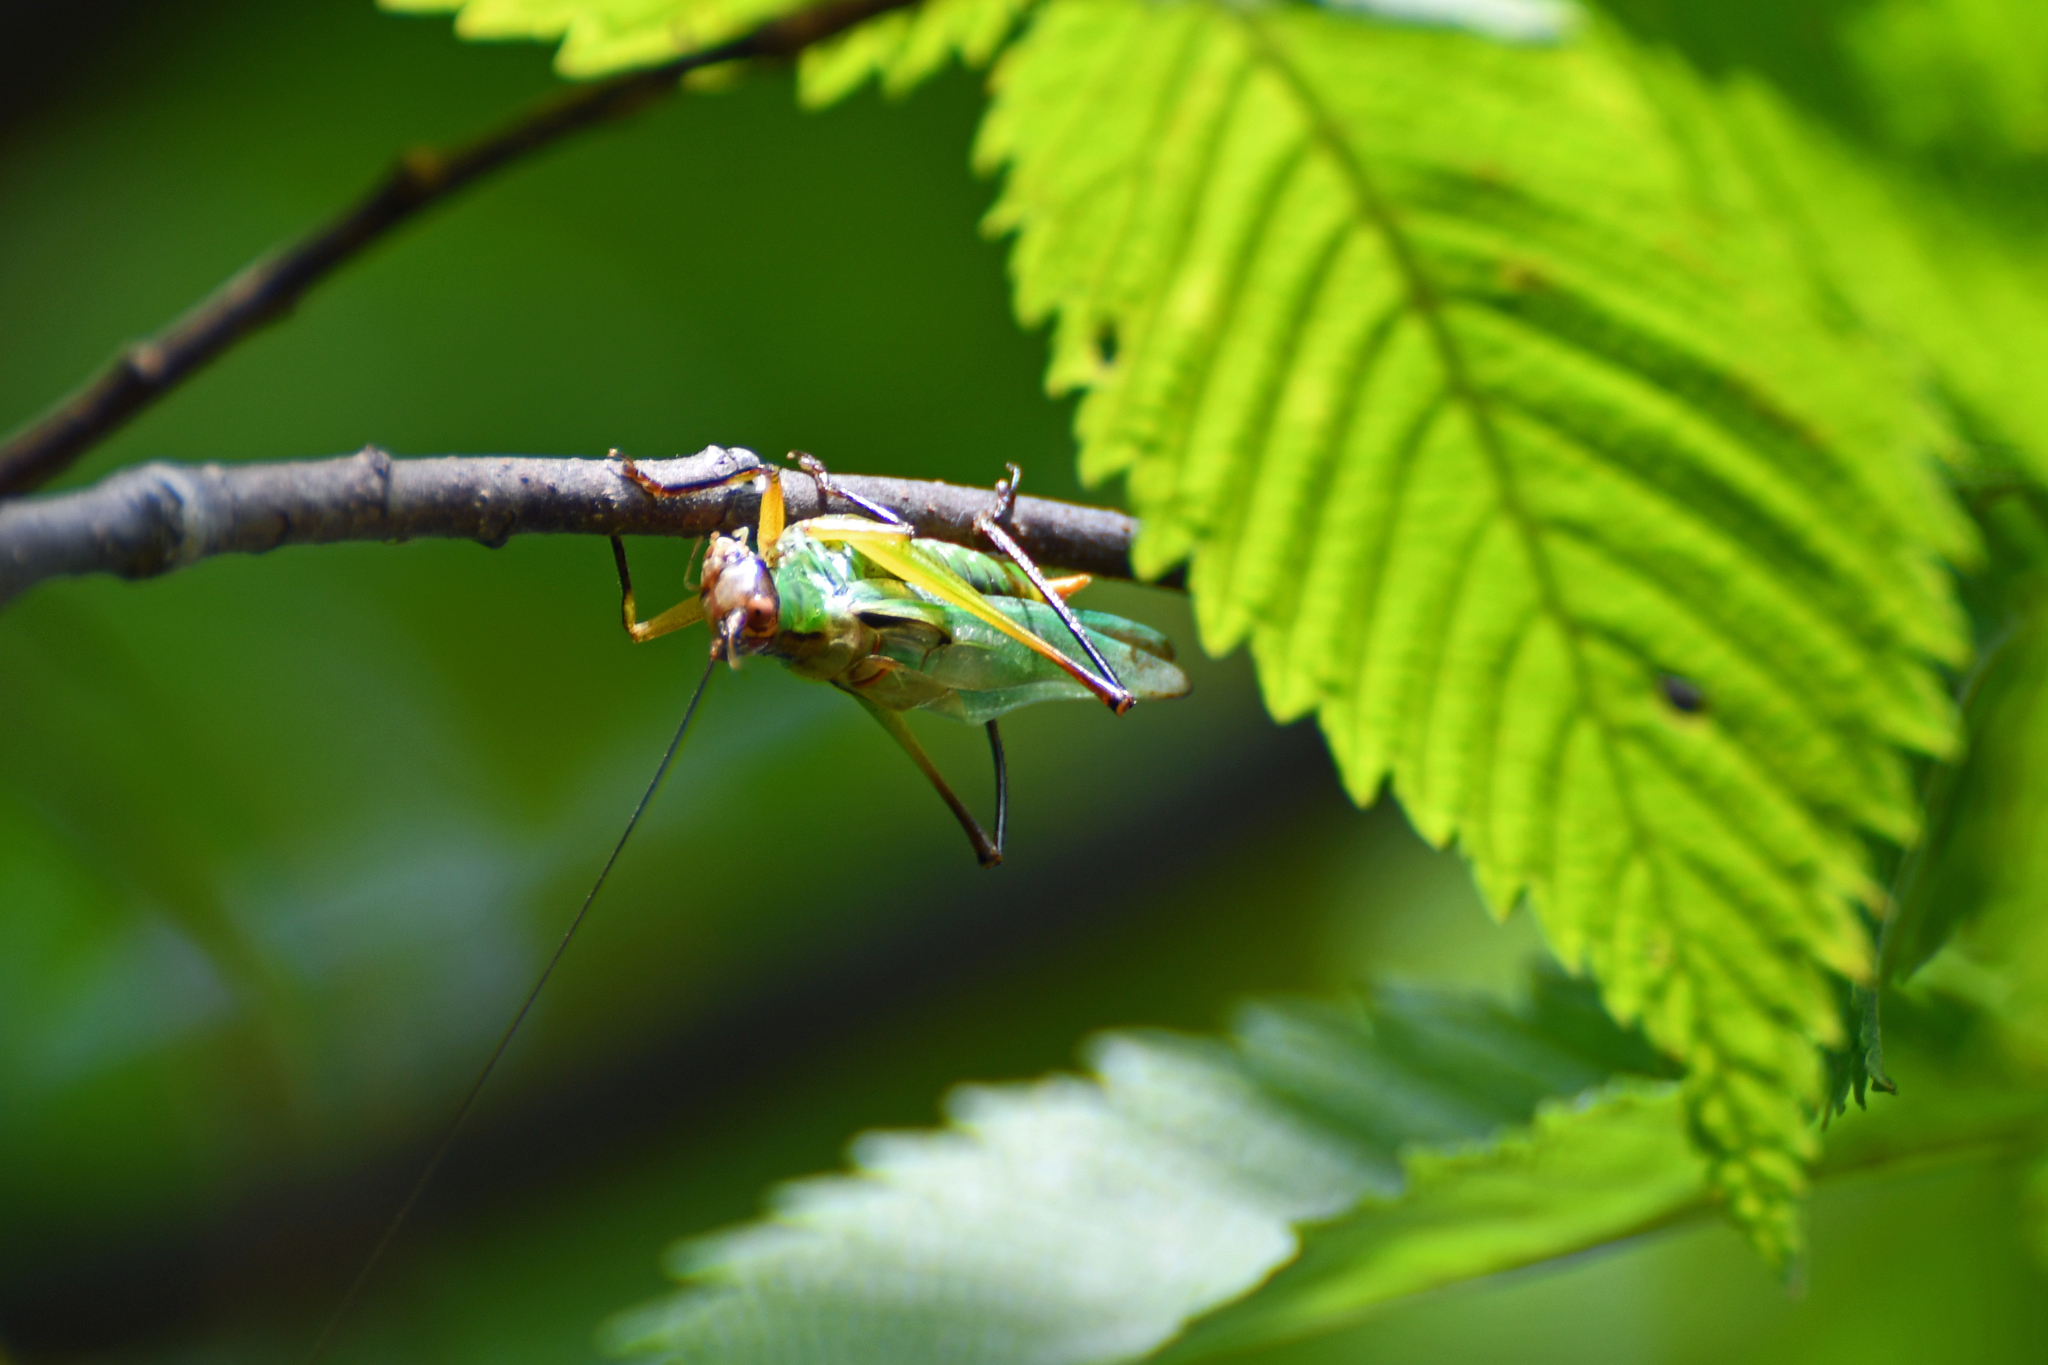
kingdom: Animalia
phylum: Arthropoda
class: Insecta
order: Orthoptera
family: Tettigoniidae
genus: Orchelimum
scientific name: Orchelimum nigripes
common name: Black-legged meadow katydid
